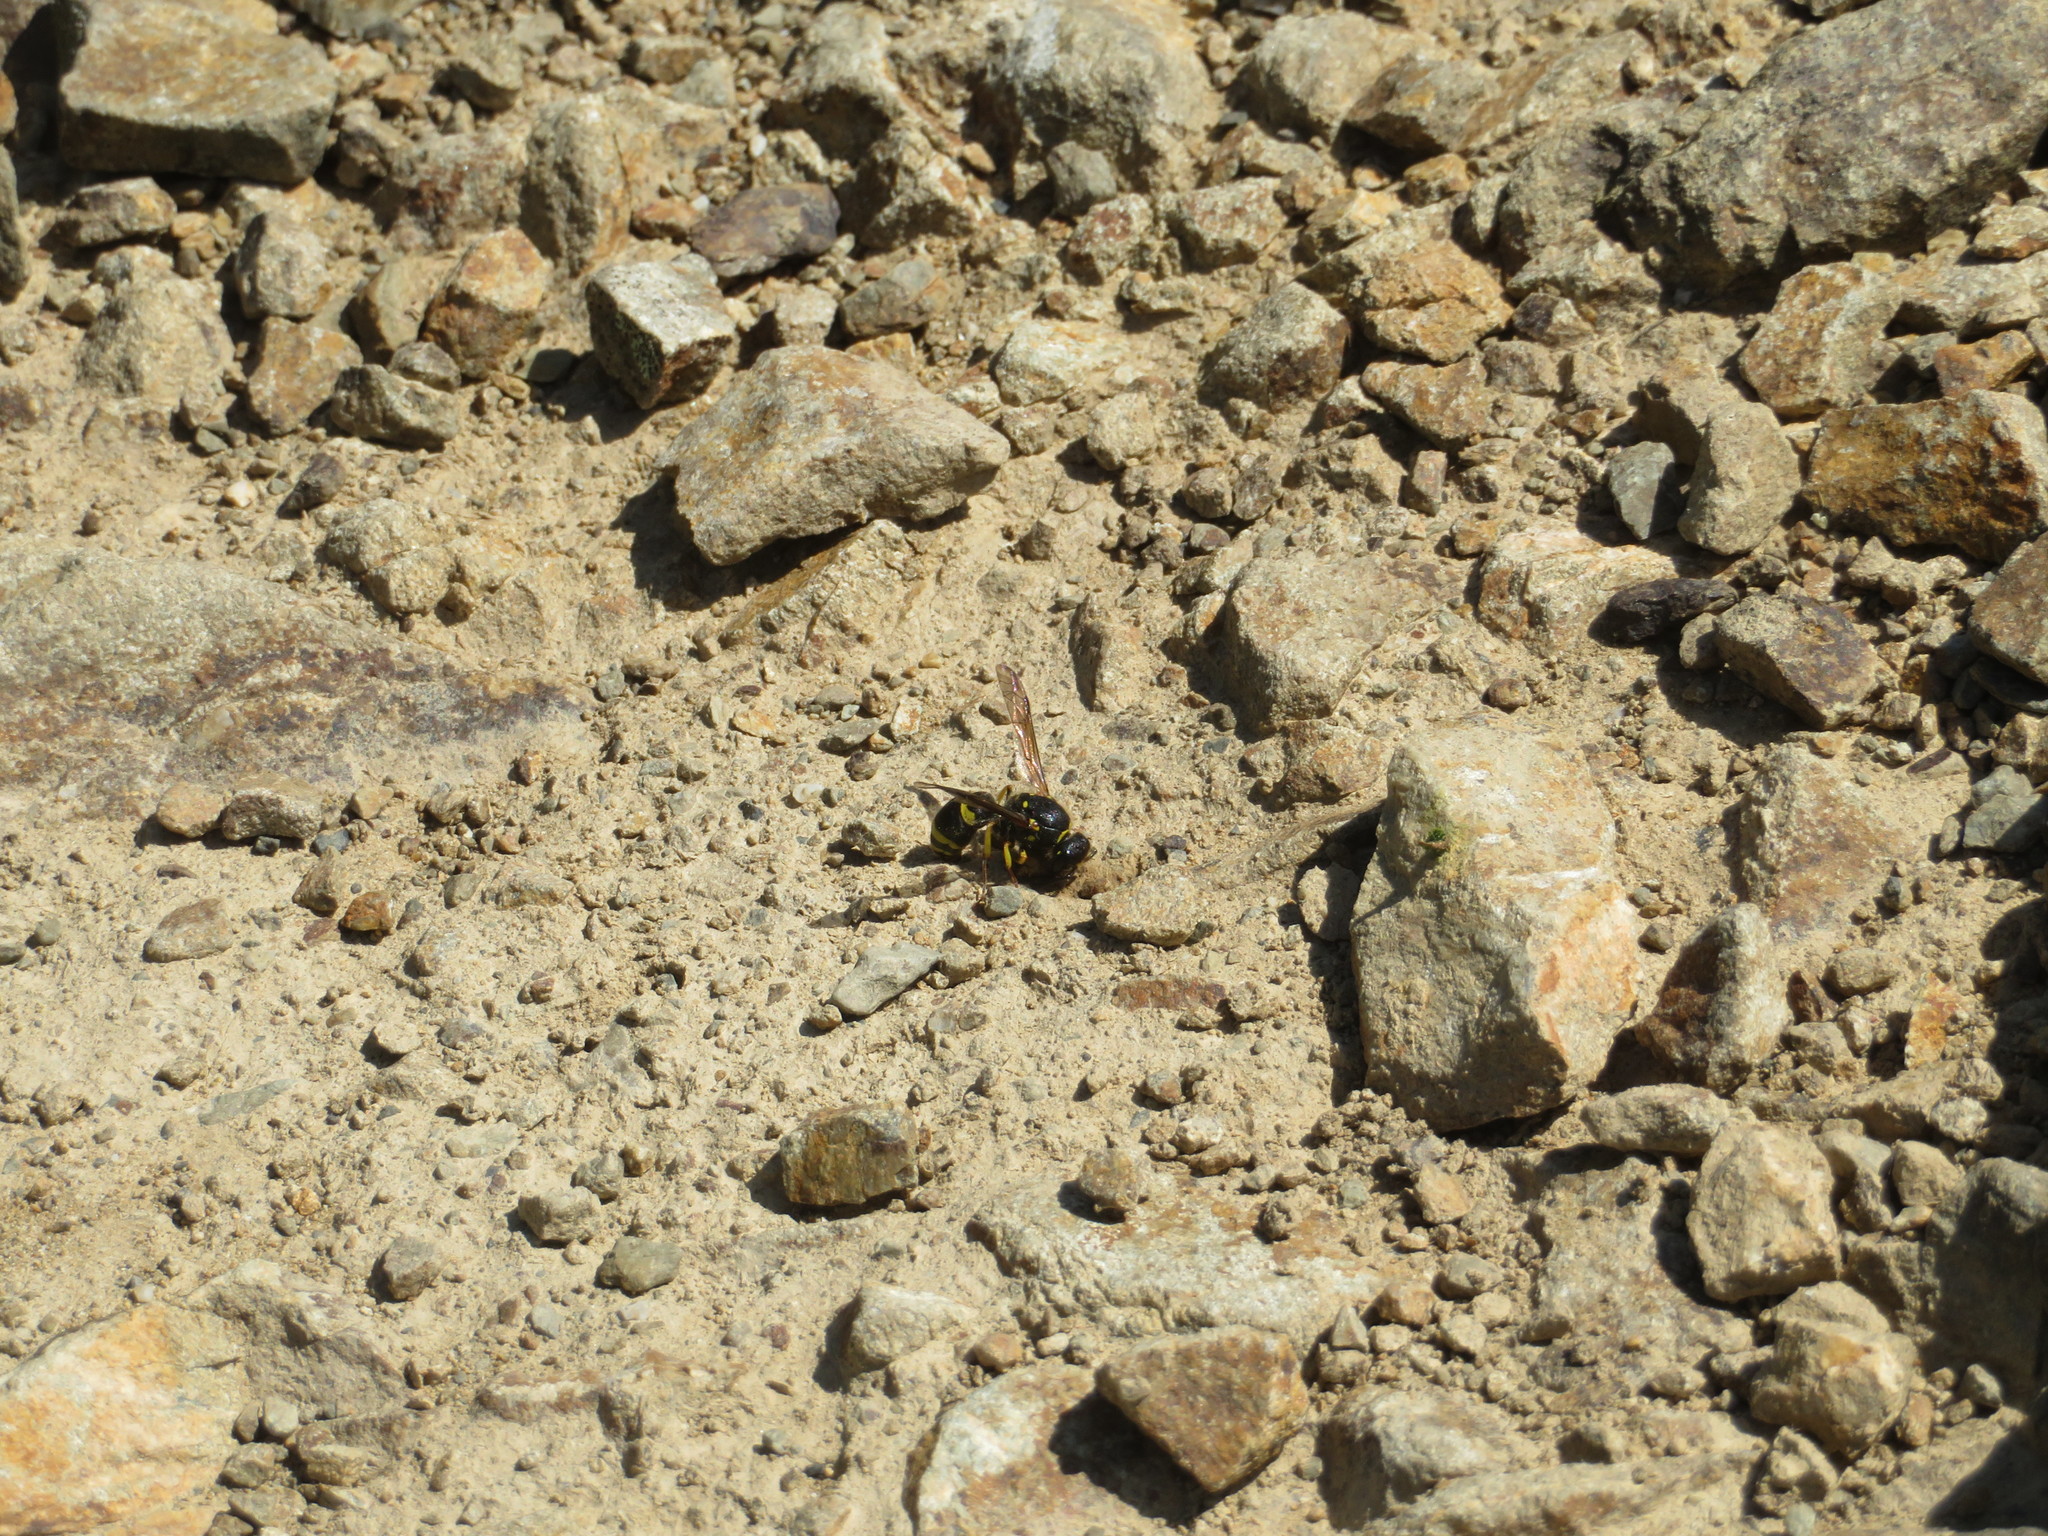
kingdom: Animalia
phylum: Arthropoda
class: Insecta
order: Hymenoptera
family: Vespidae
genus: Ancistrocerus
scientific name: Ancistrocerus gazella
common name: European tube wasp
